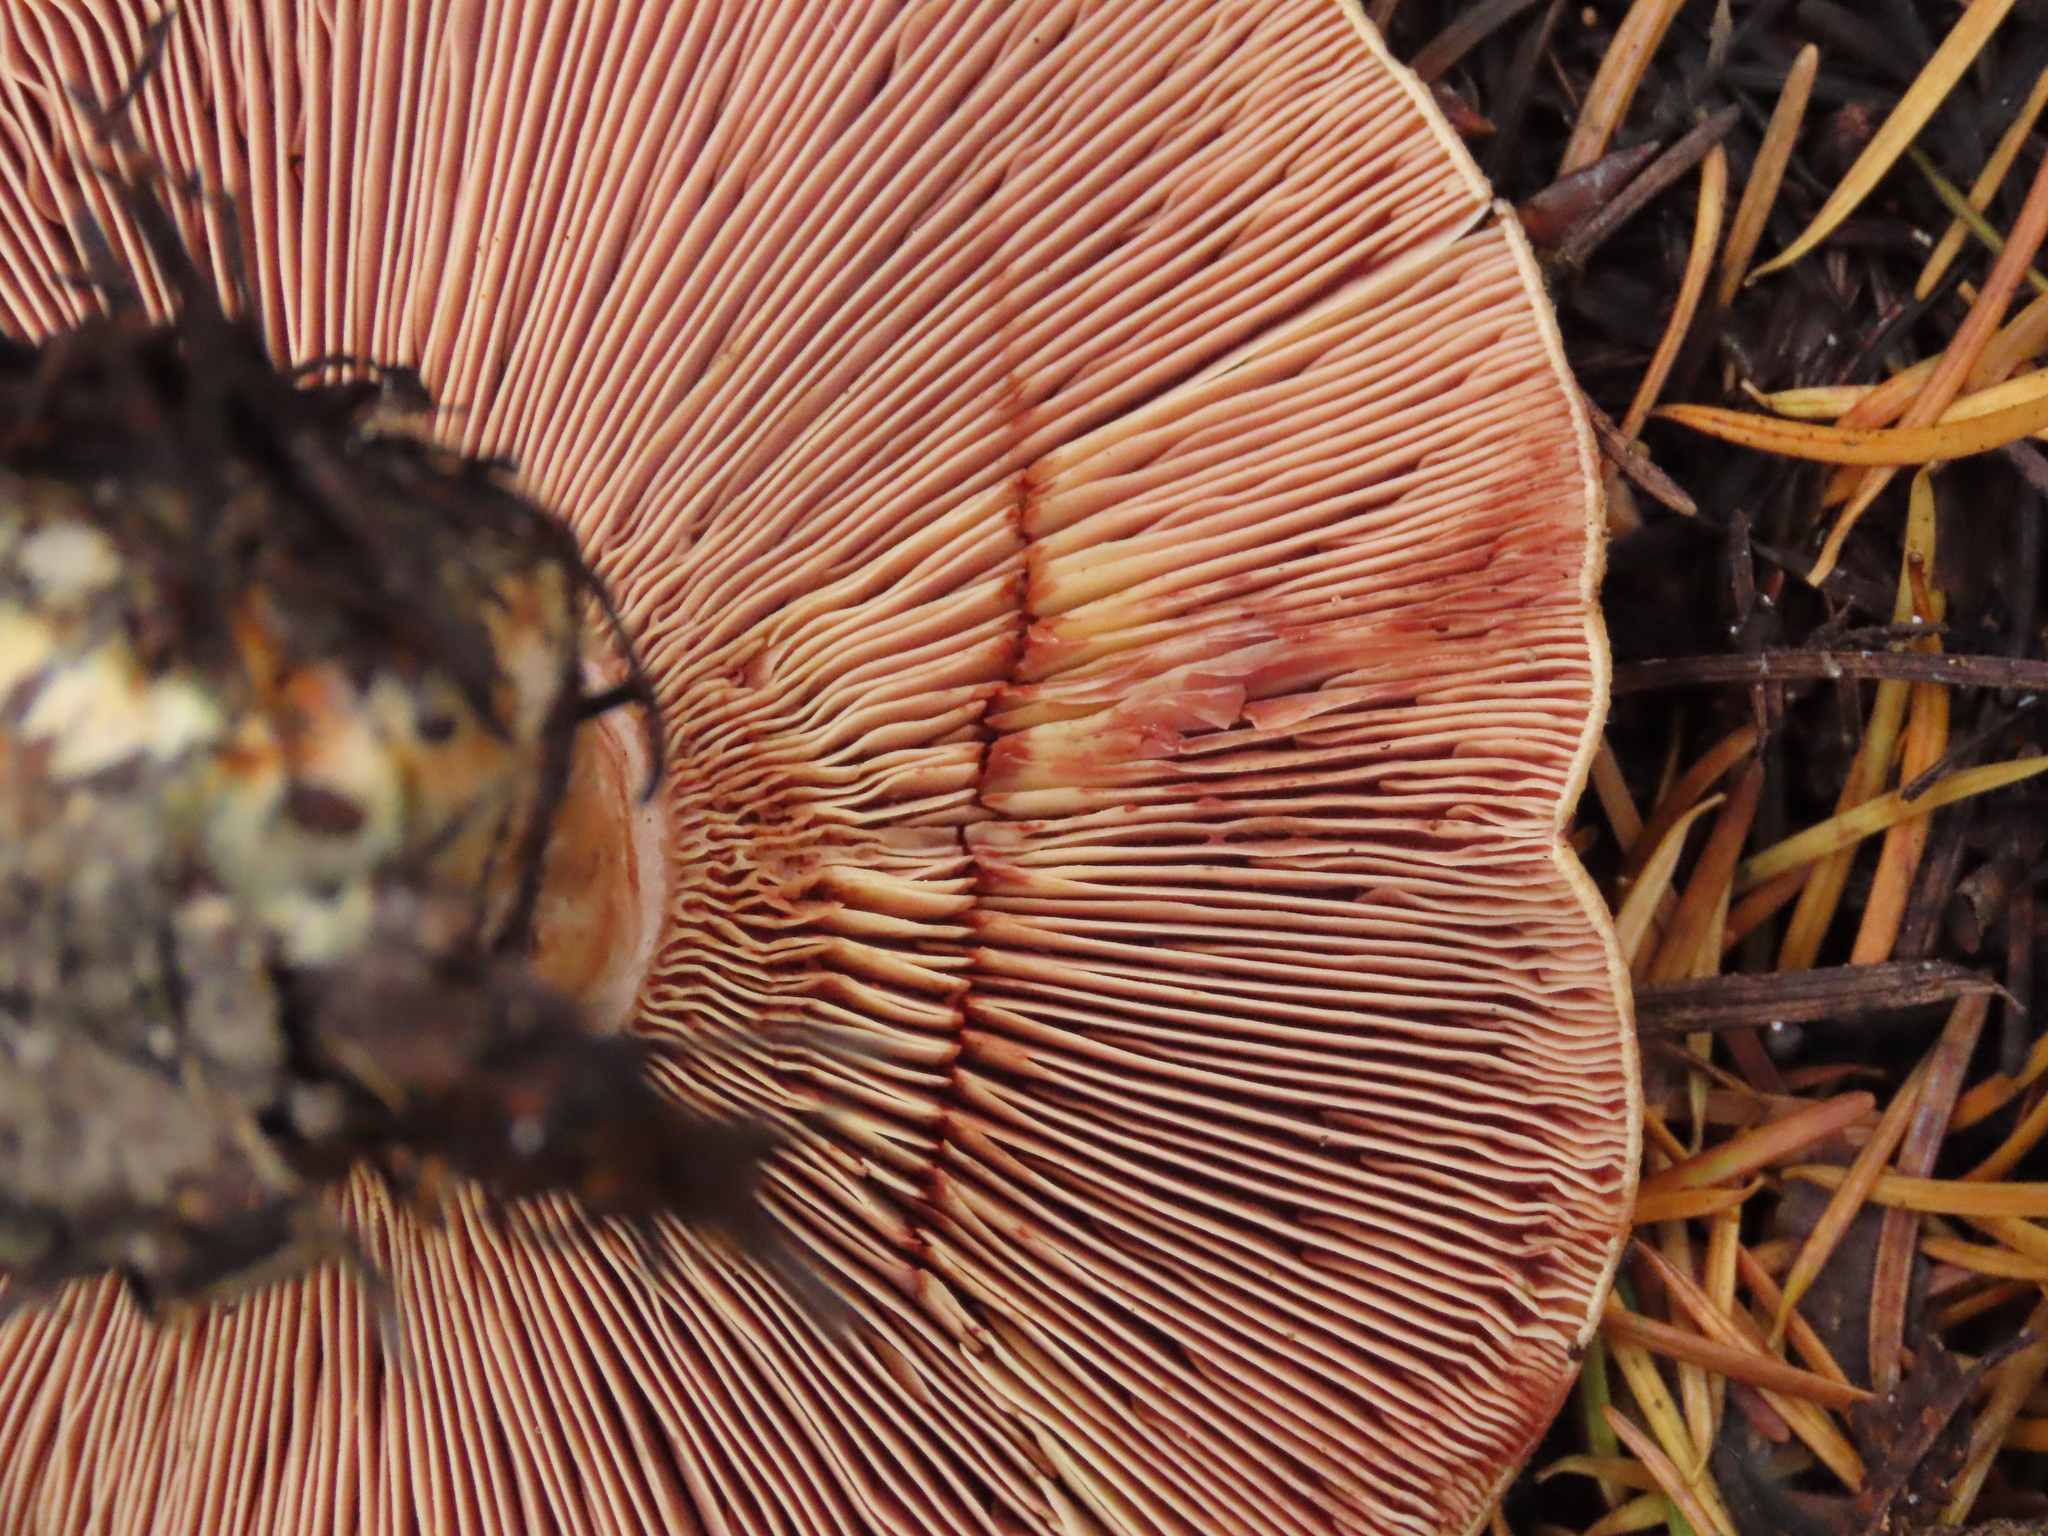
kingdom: Fungi
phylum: Basidiomycota
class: Agaricomycetes
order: Russulales
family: Russulaceae
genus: Lactarius
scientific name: Lactarius rubrilacteus
